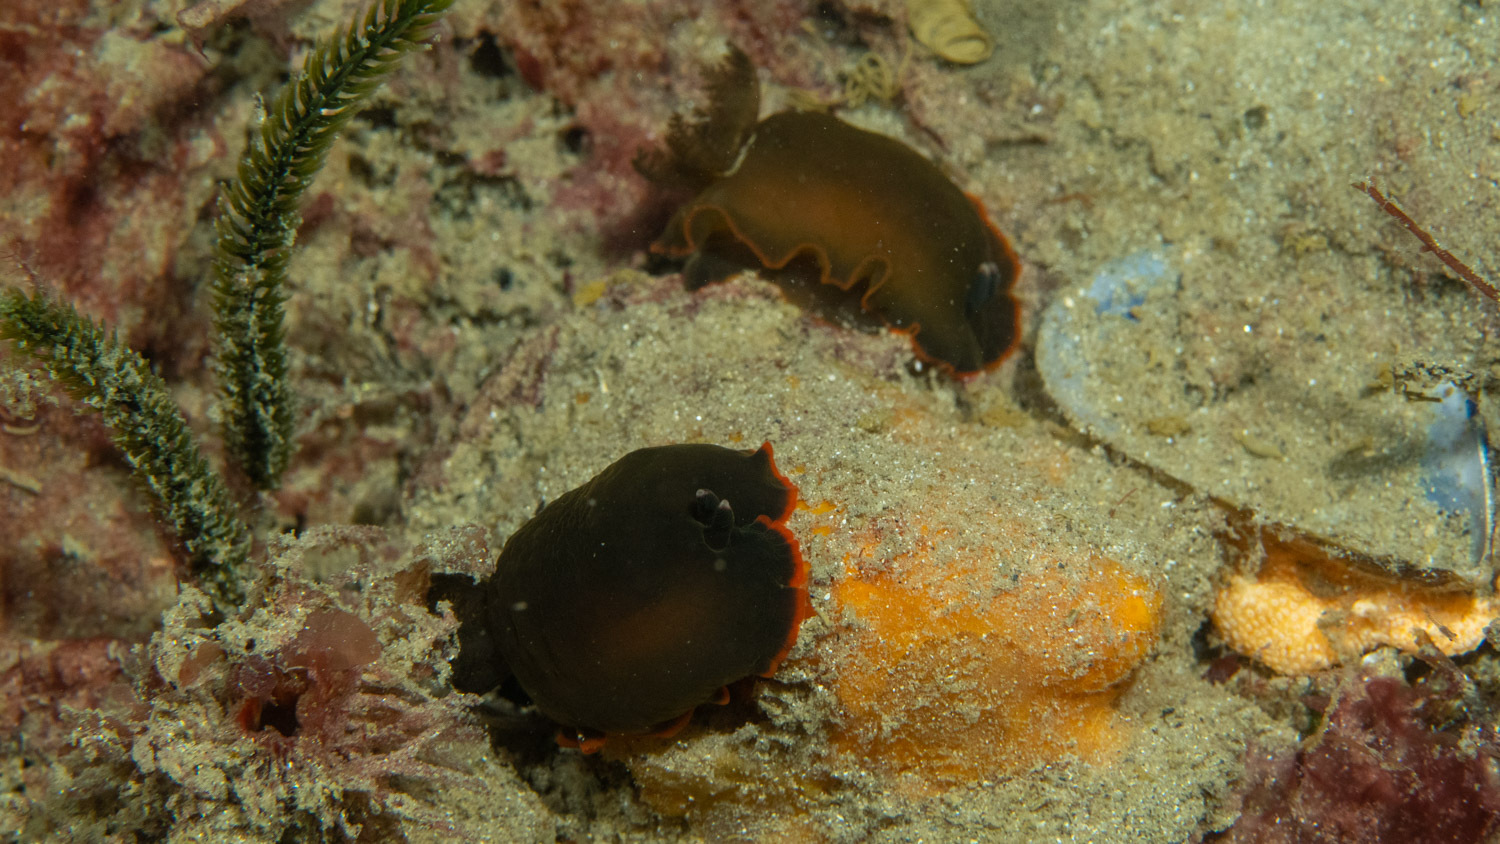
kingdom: Animalia
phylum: Mollusca
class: Gastropoda
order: Nudibranchia
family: Dendrodorididae
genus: Dendrodoris
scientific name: Dendrodoris arborescens
